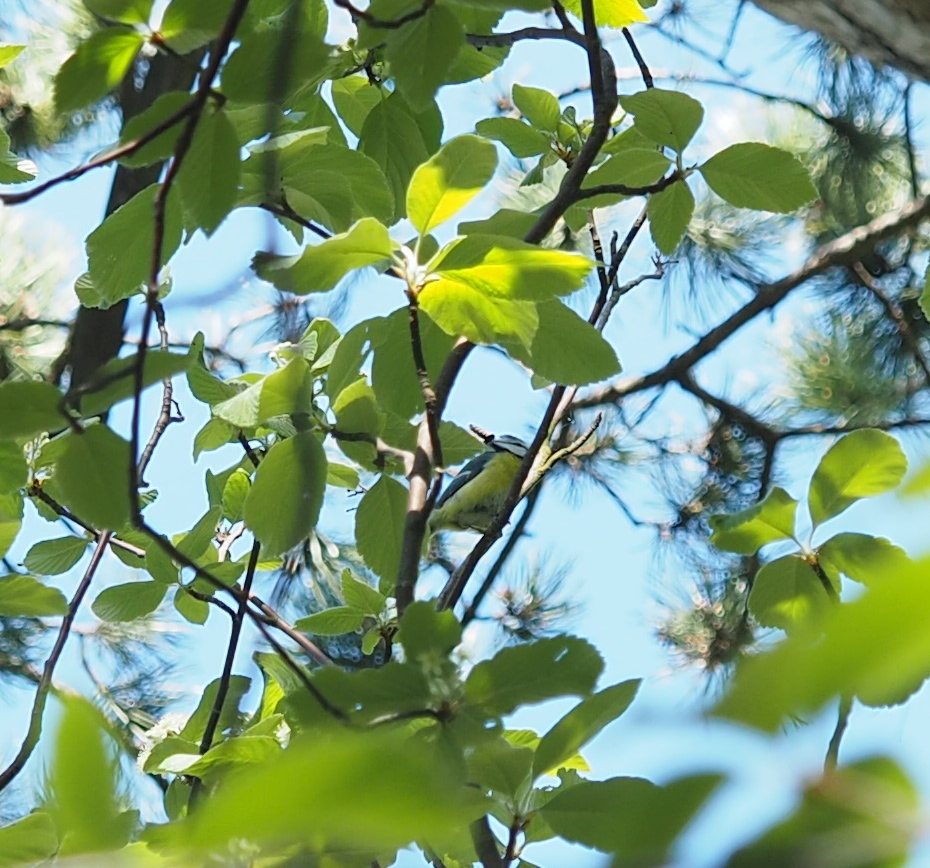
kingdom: Animalia
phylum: Chordata
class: Aves
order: Passeriformes
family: Paridae
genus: Cyanistes
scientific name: Cyanistes caeruleus
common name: Eurasian blue tit
